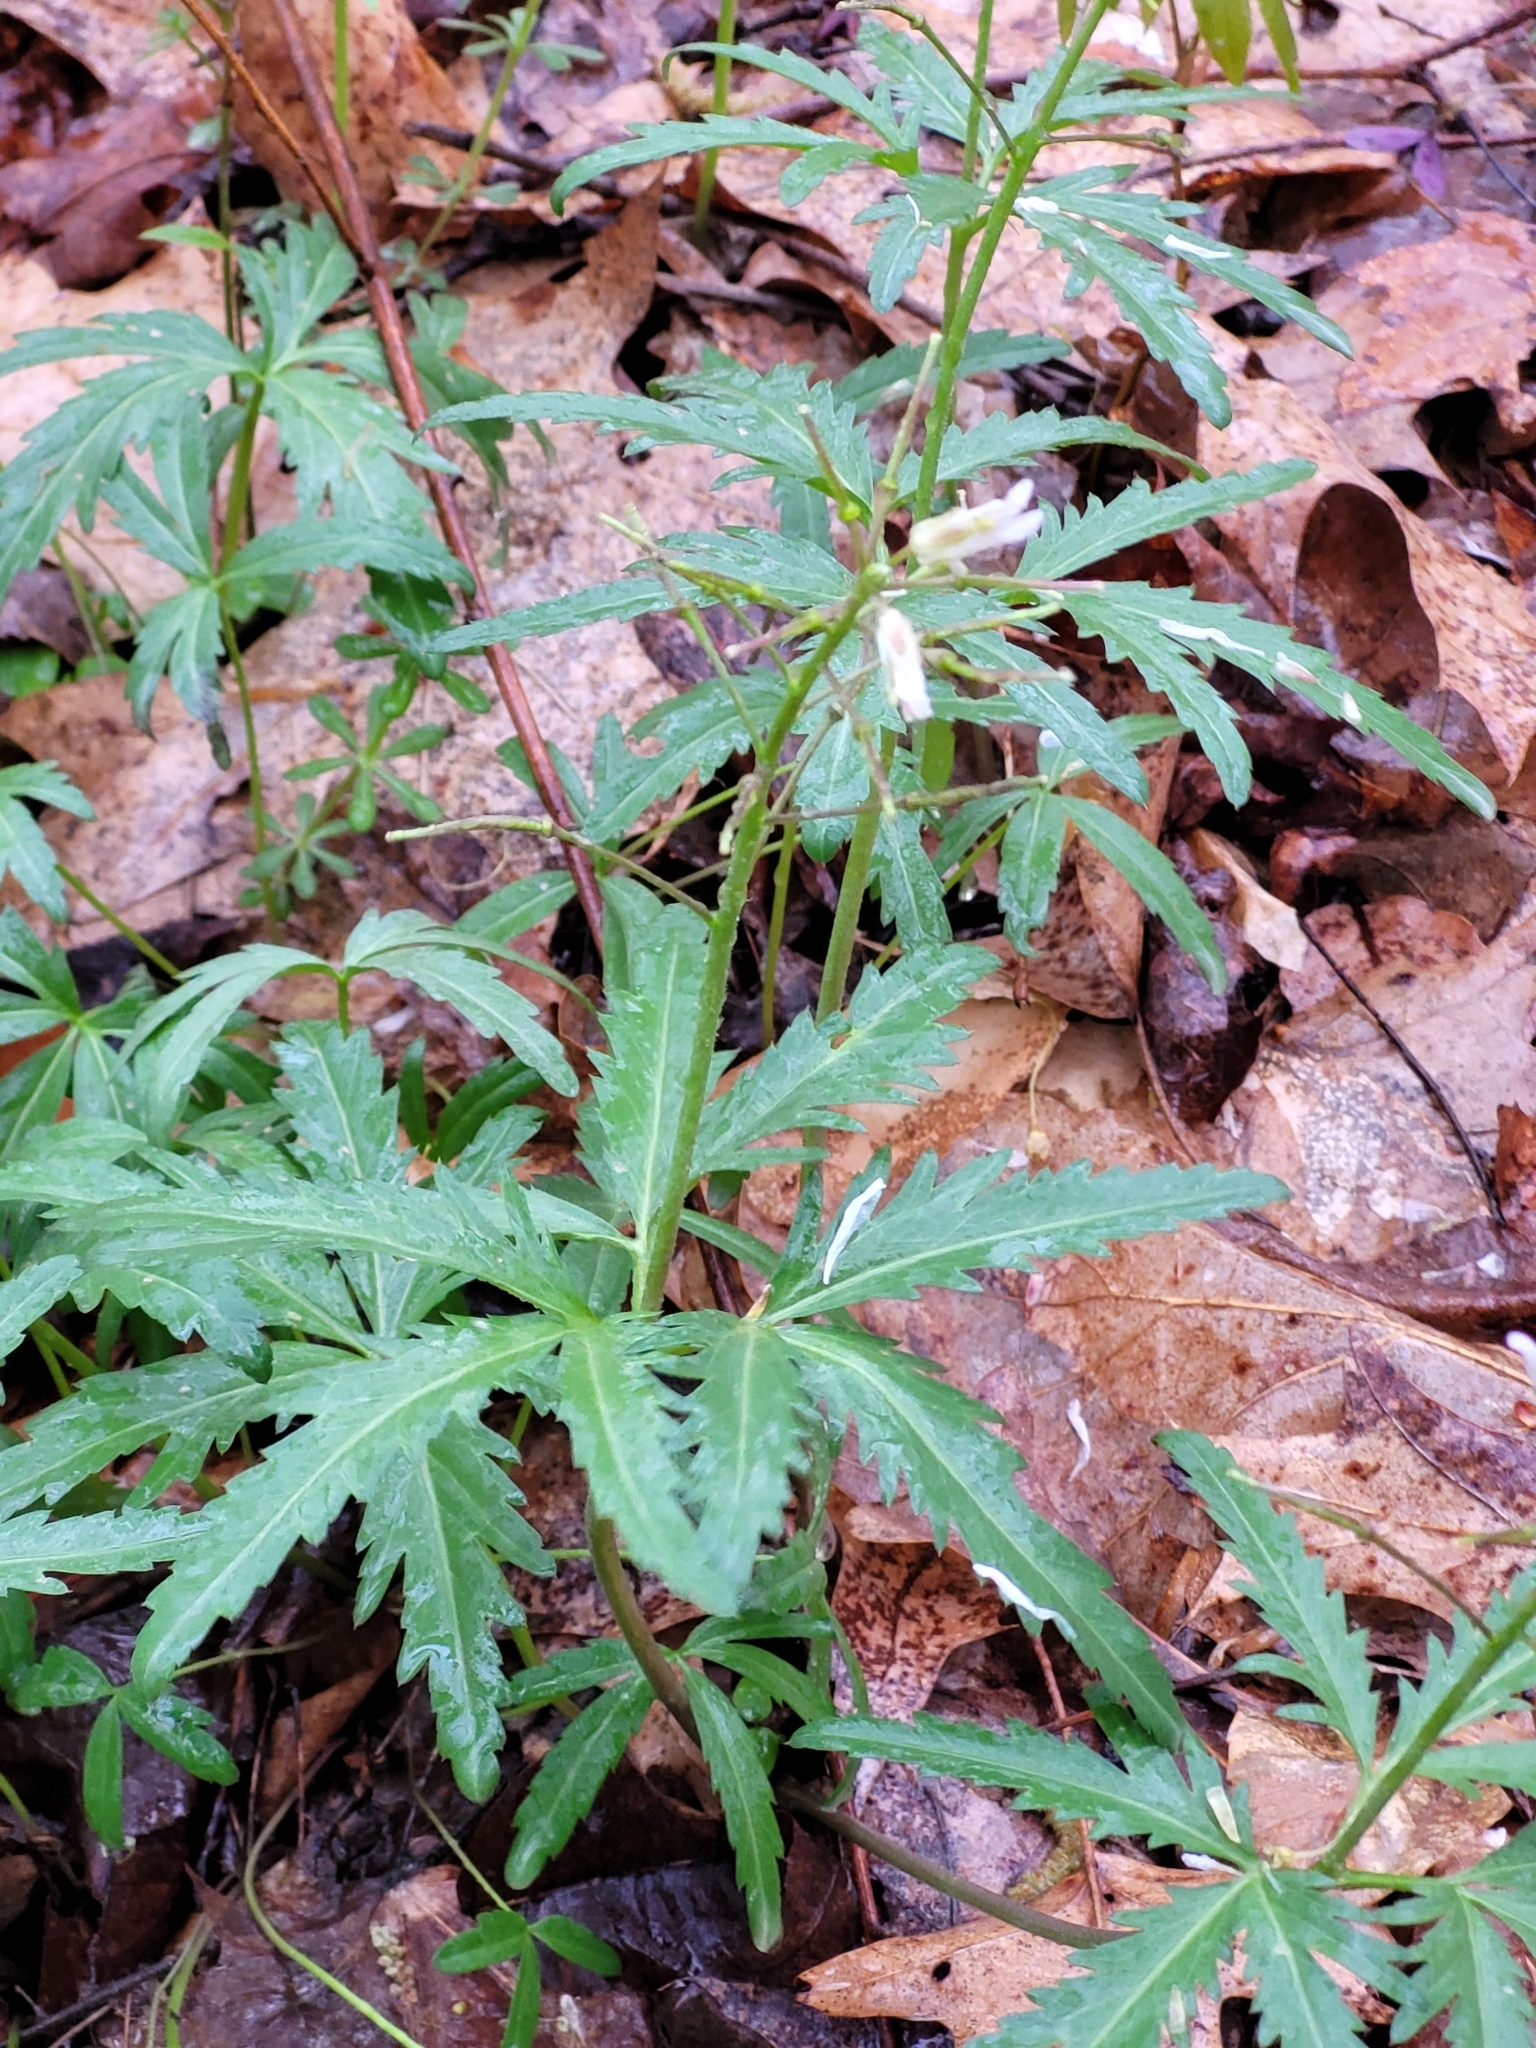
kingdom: Plantae
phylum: Tracheophyta
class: Magnoliopsida
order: Brassicales
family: Brassicaceae
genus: Cardamine
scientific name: Cardamine concatenata
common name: Cut-leaf toothcup
